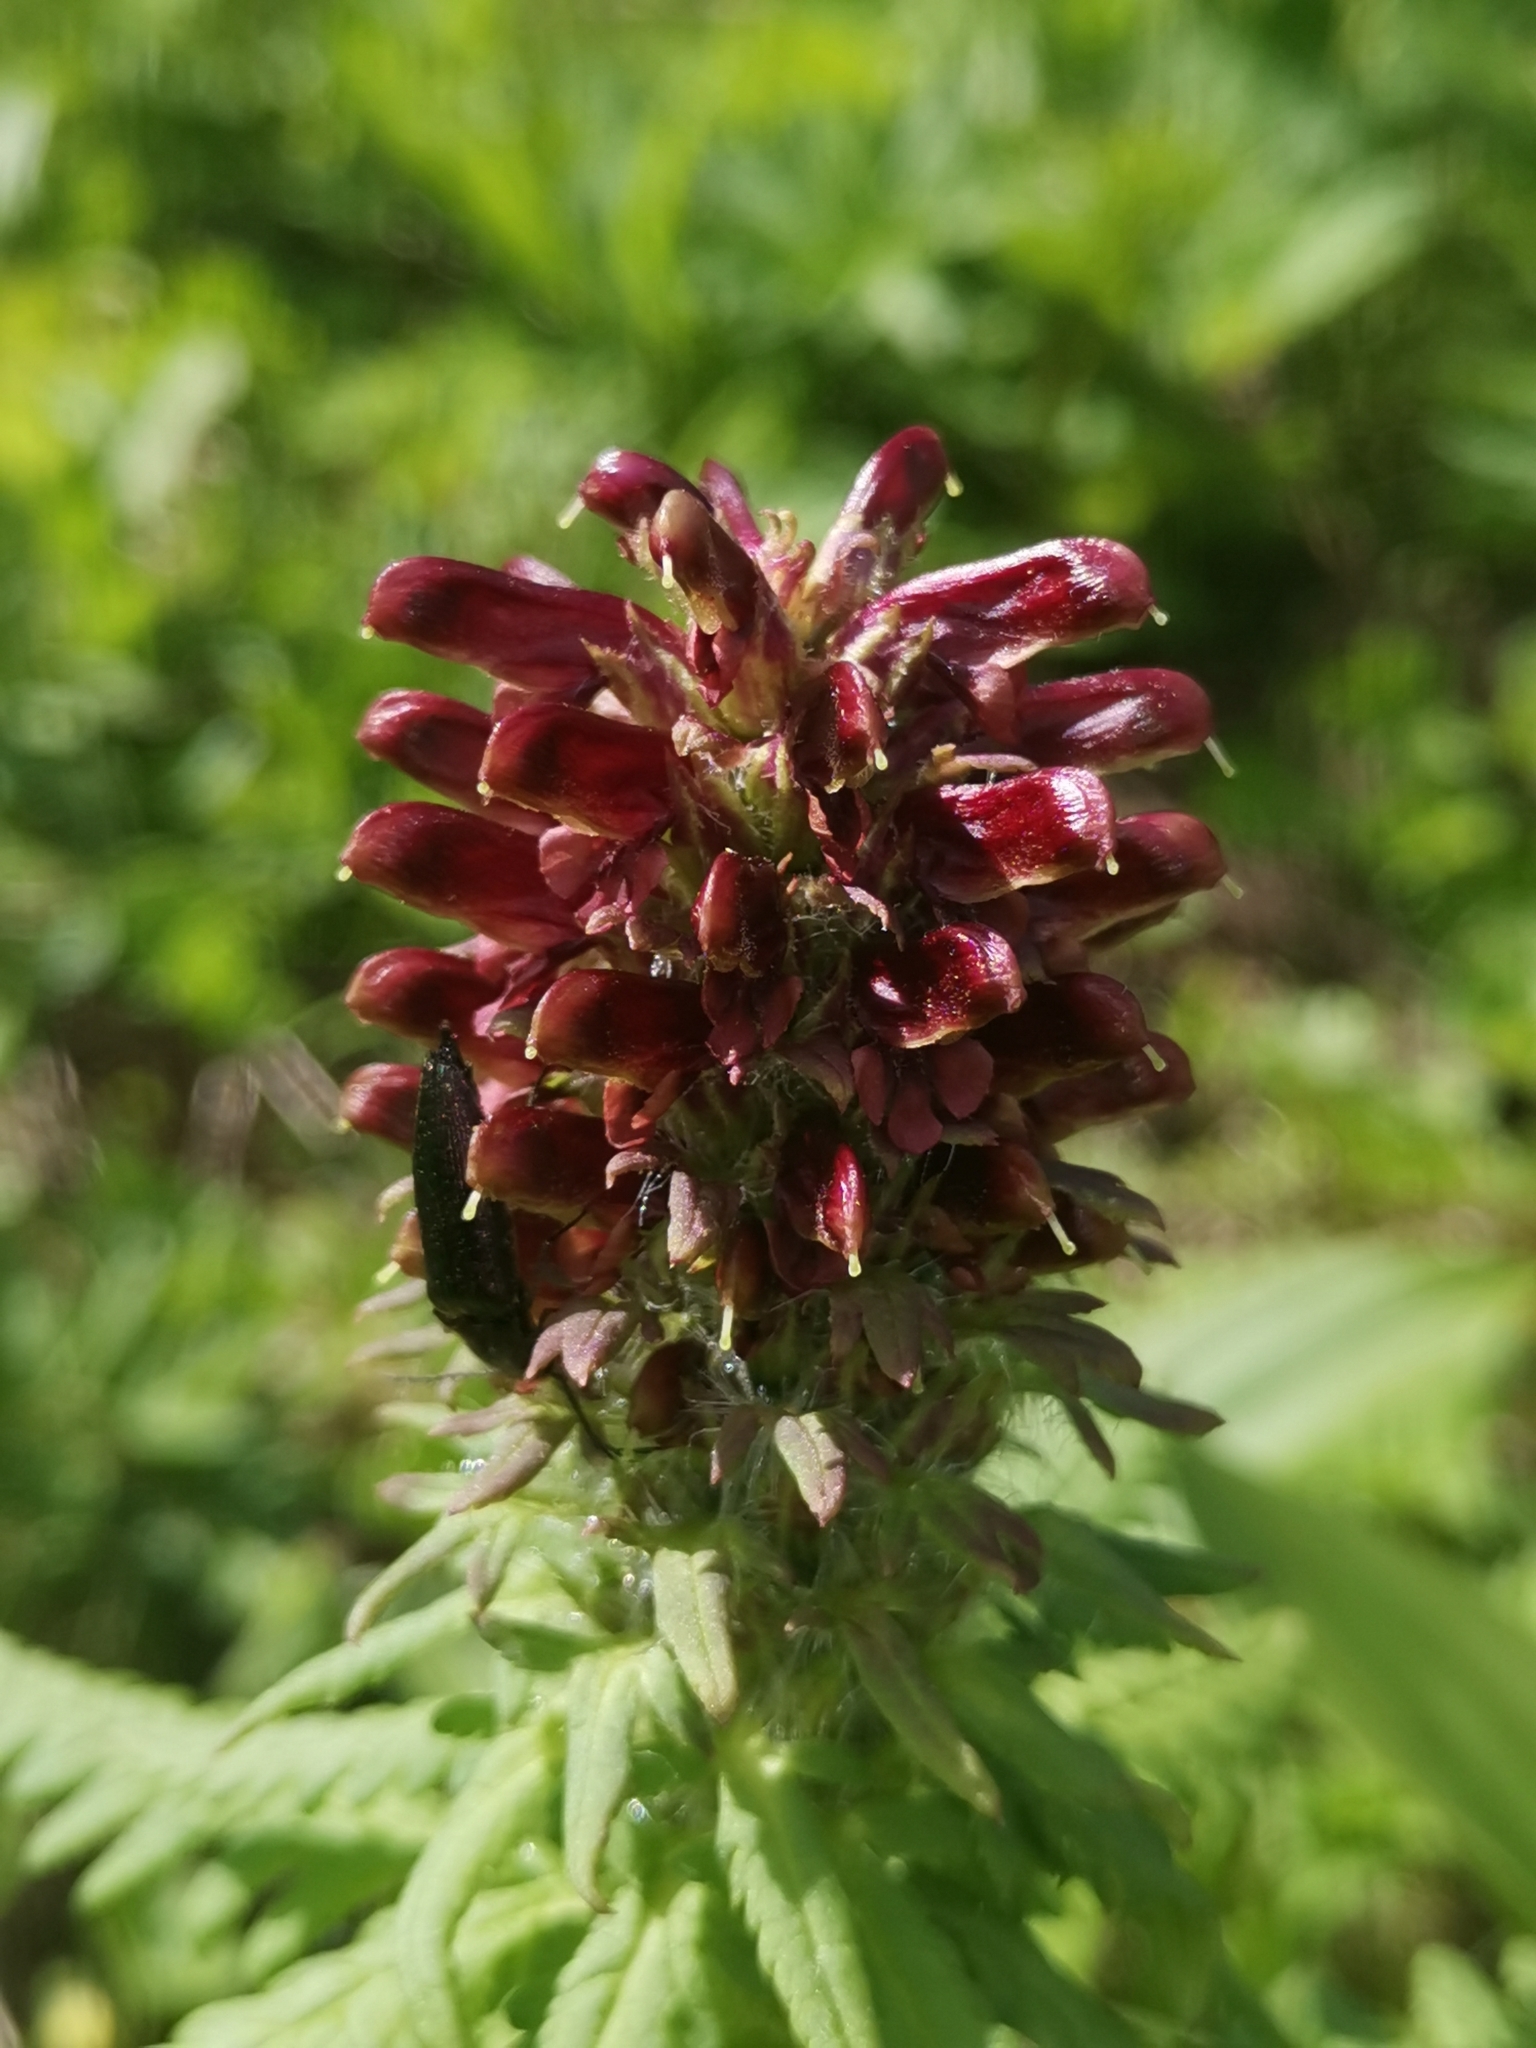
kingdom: Plantae
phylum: Tracheophyta
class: Magnoliopsida
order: Lamiales
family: Orobanchaceae
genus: Pedicularis
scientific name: Pedicularis recutita
